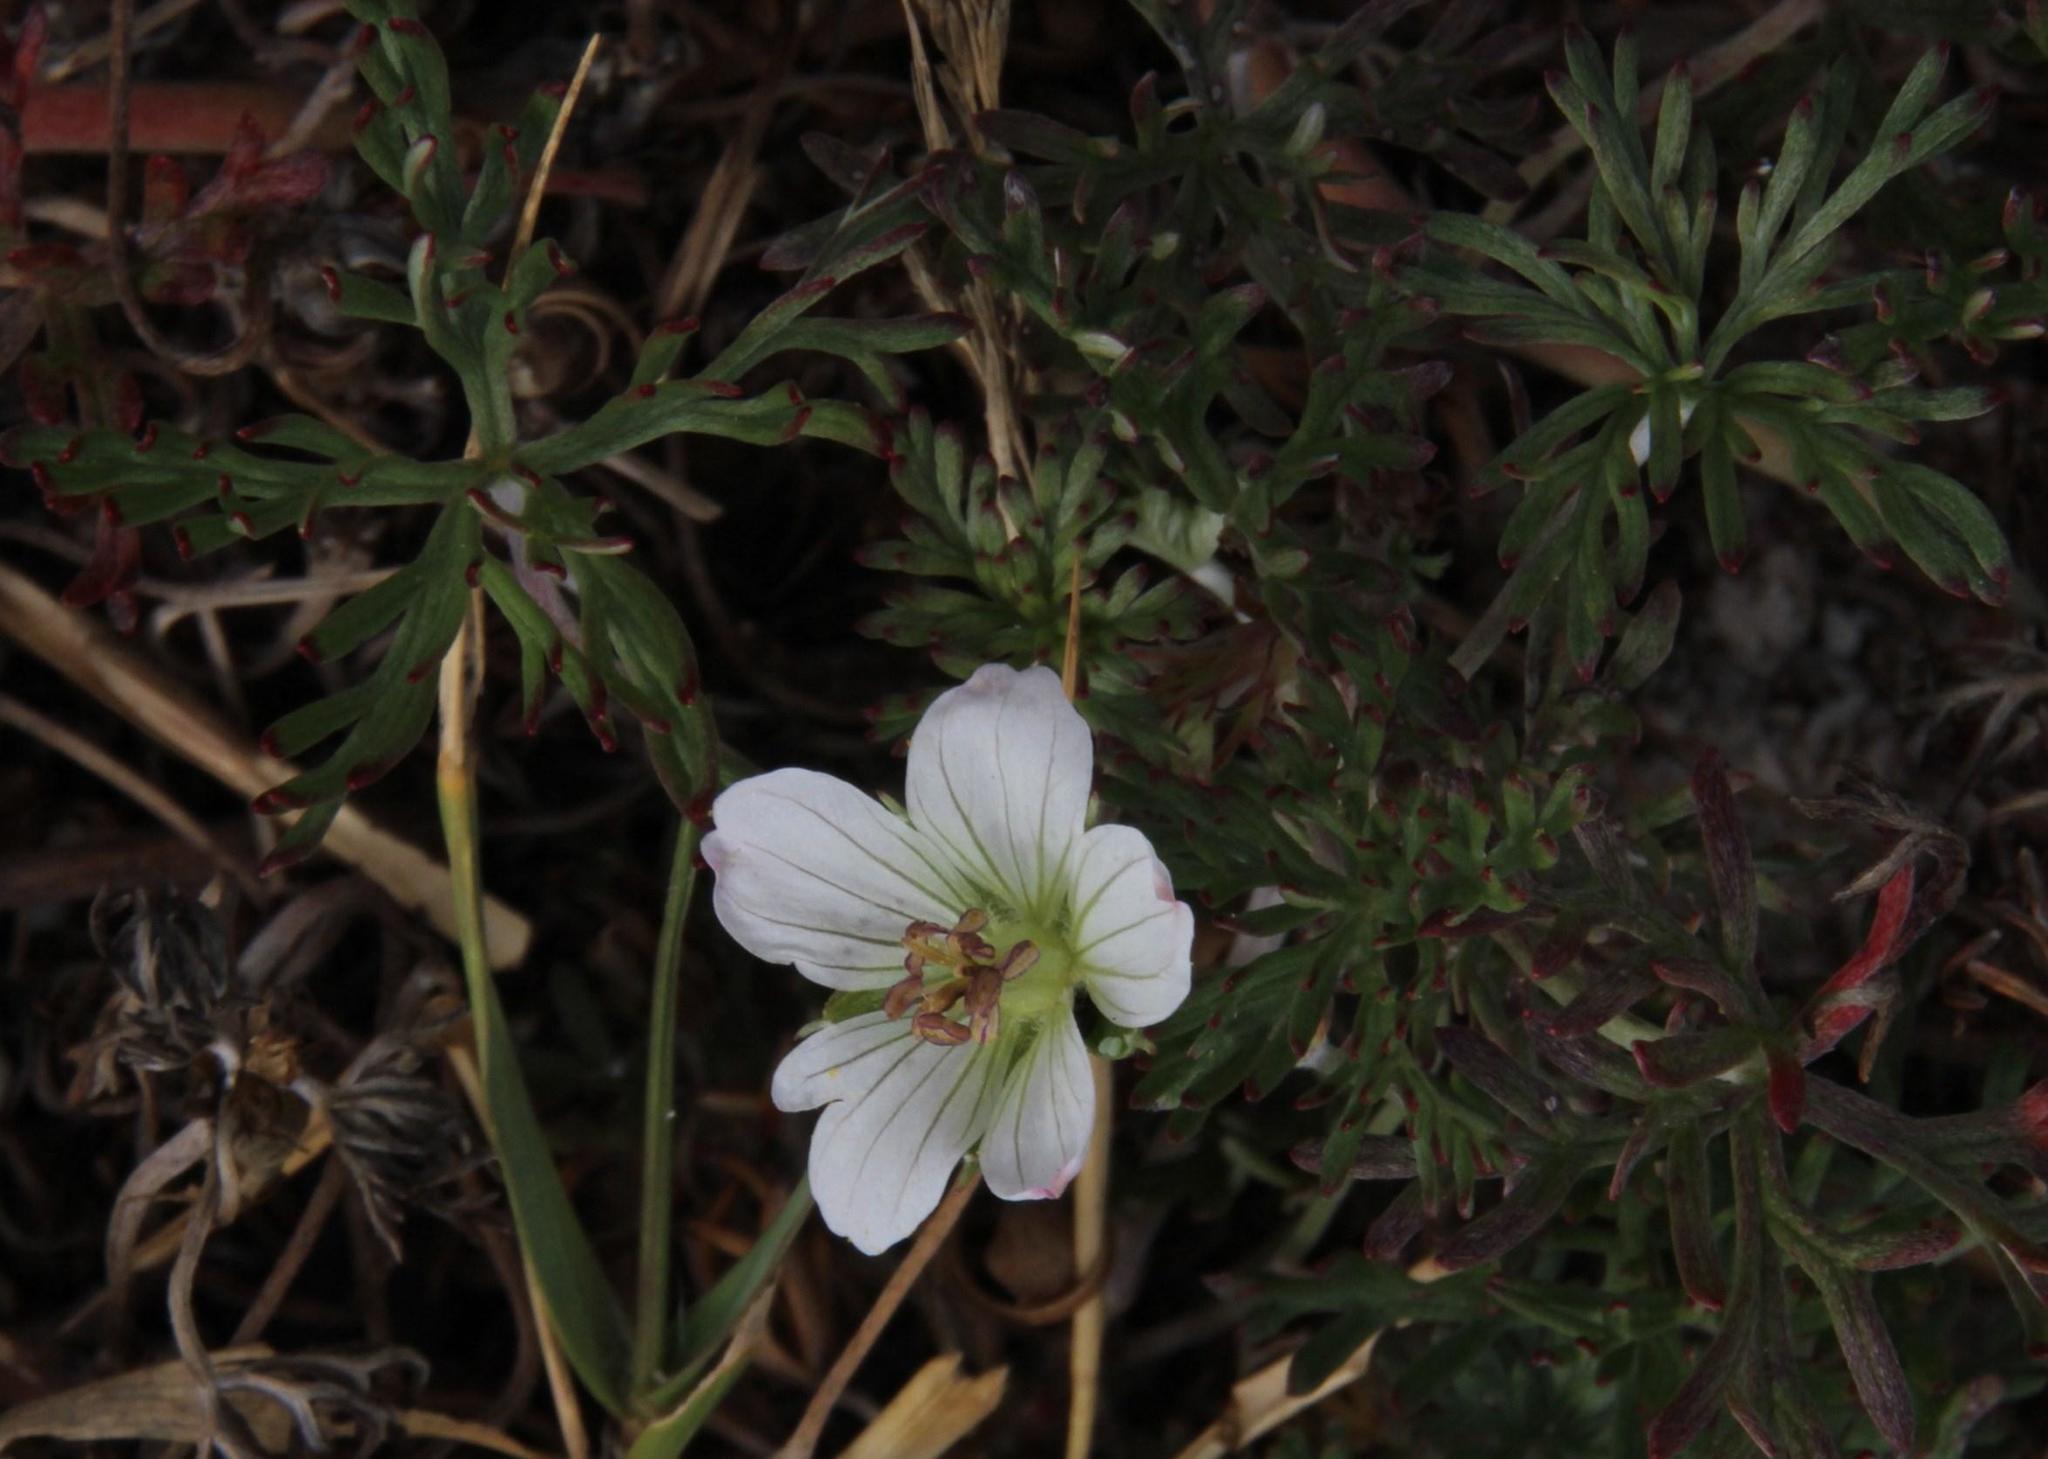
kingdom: Plantae
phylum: Tracheophyta
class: Magnoliopsida
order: Geraniales
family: Geraniaceae
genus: Geranium
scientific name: Geranium incanum
